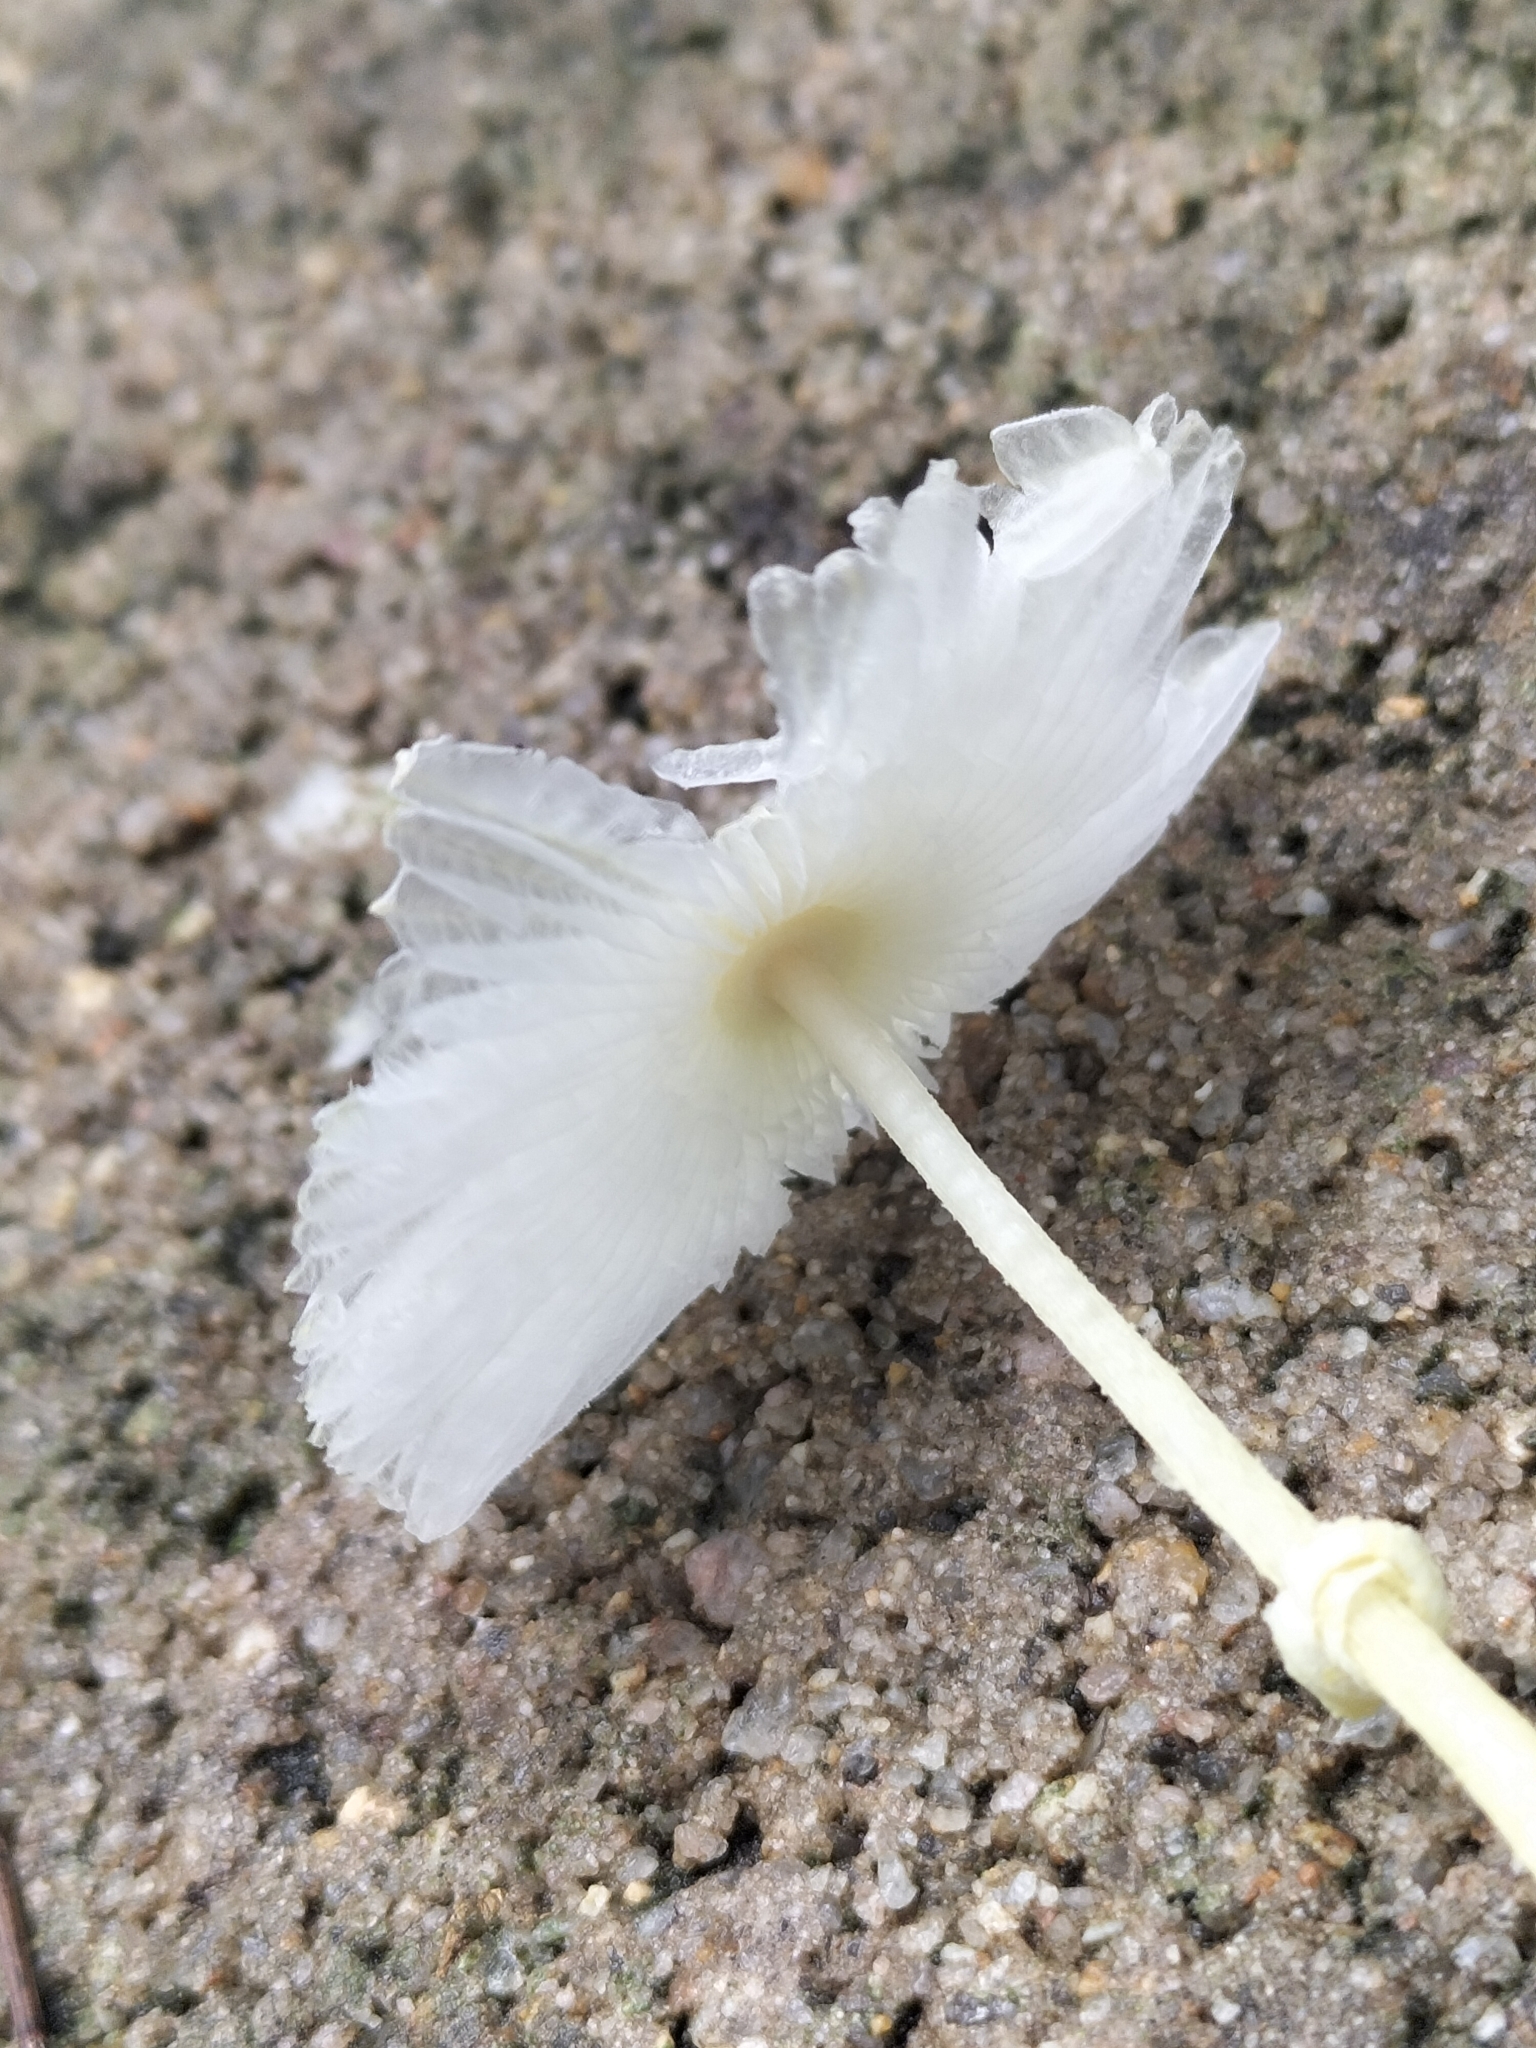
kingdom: Fungi
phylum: Basidiomycota
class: Agaricomycetes
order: Agaricales
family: Agaricaceae
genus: Leucocoprinus
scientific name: Leucocoprinus fragilissimus
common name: Fragile dapperling
